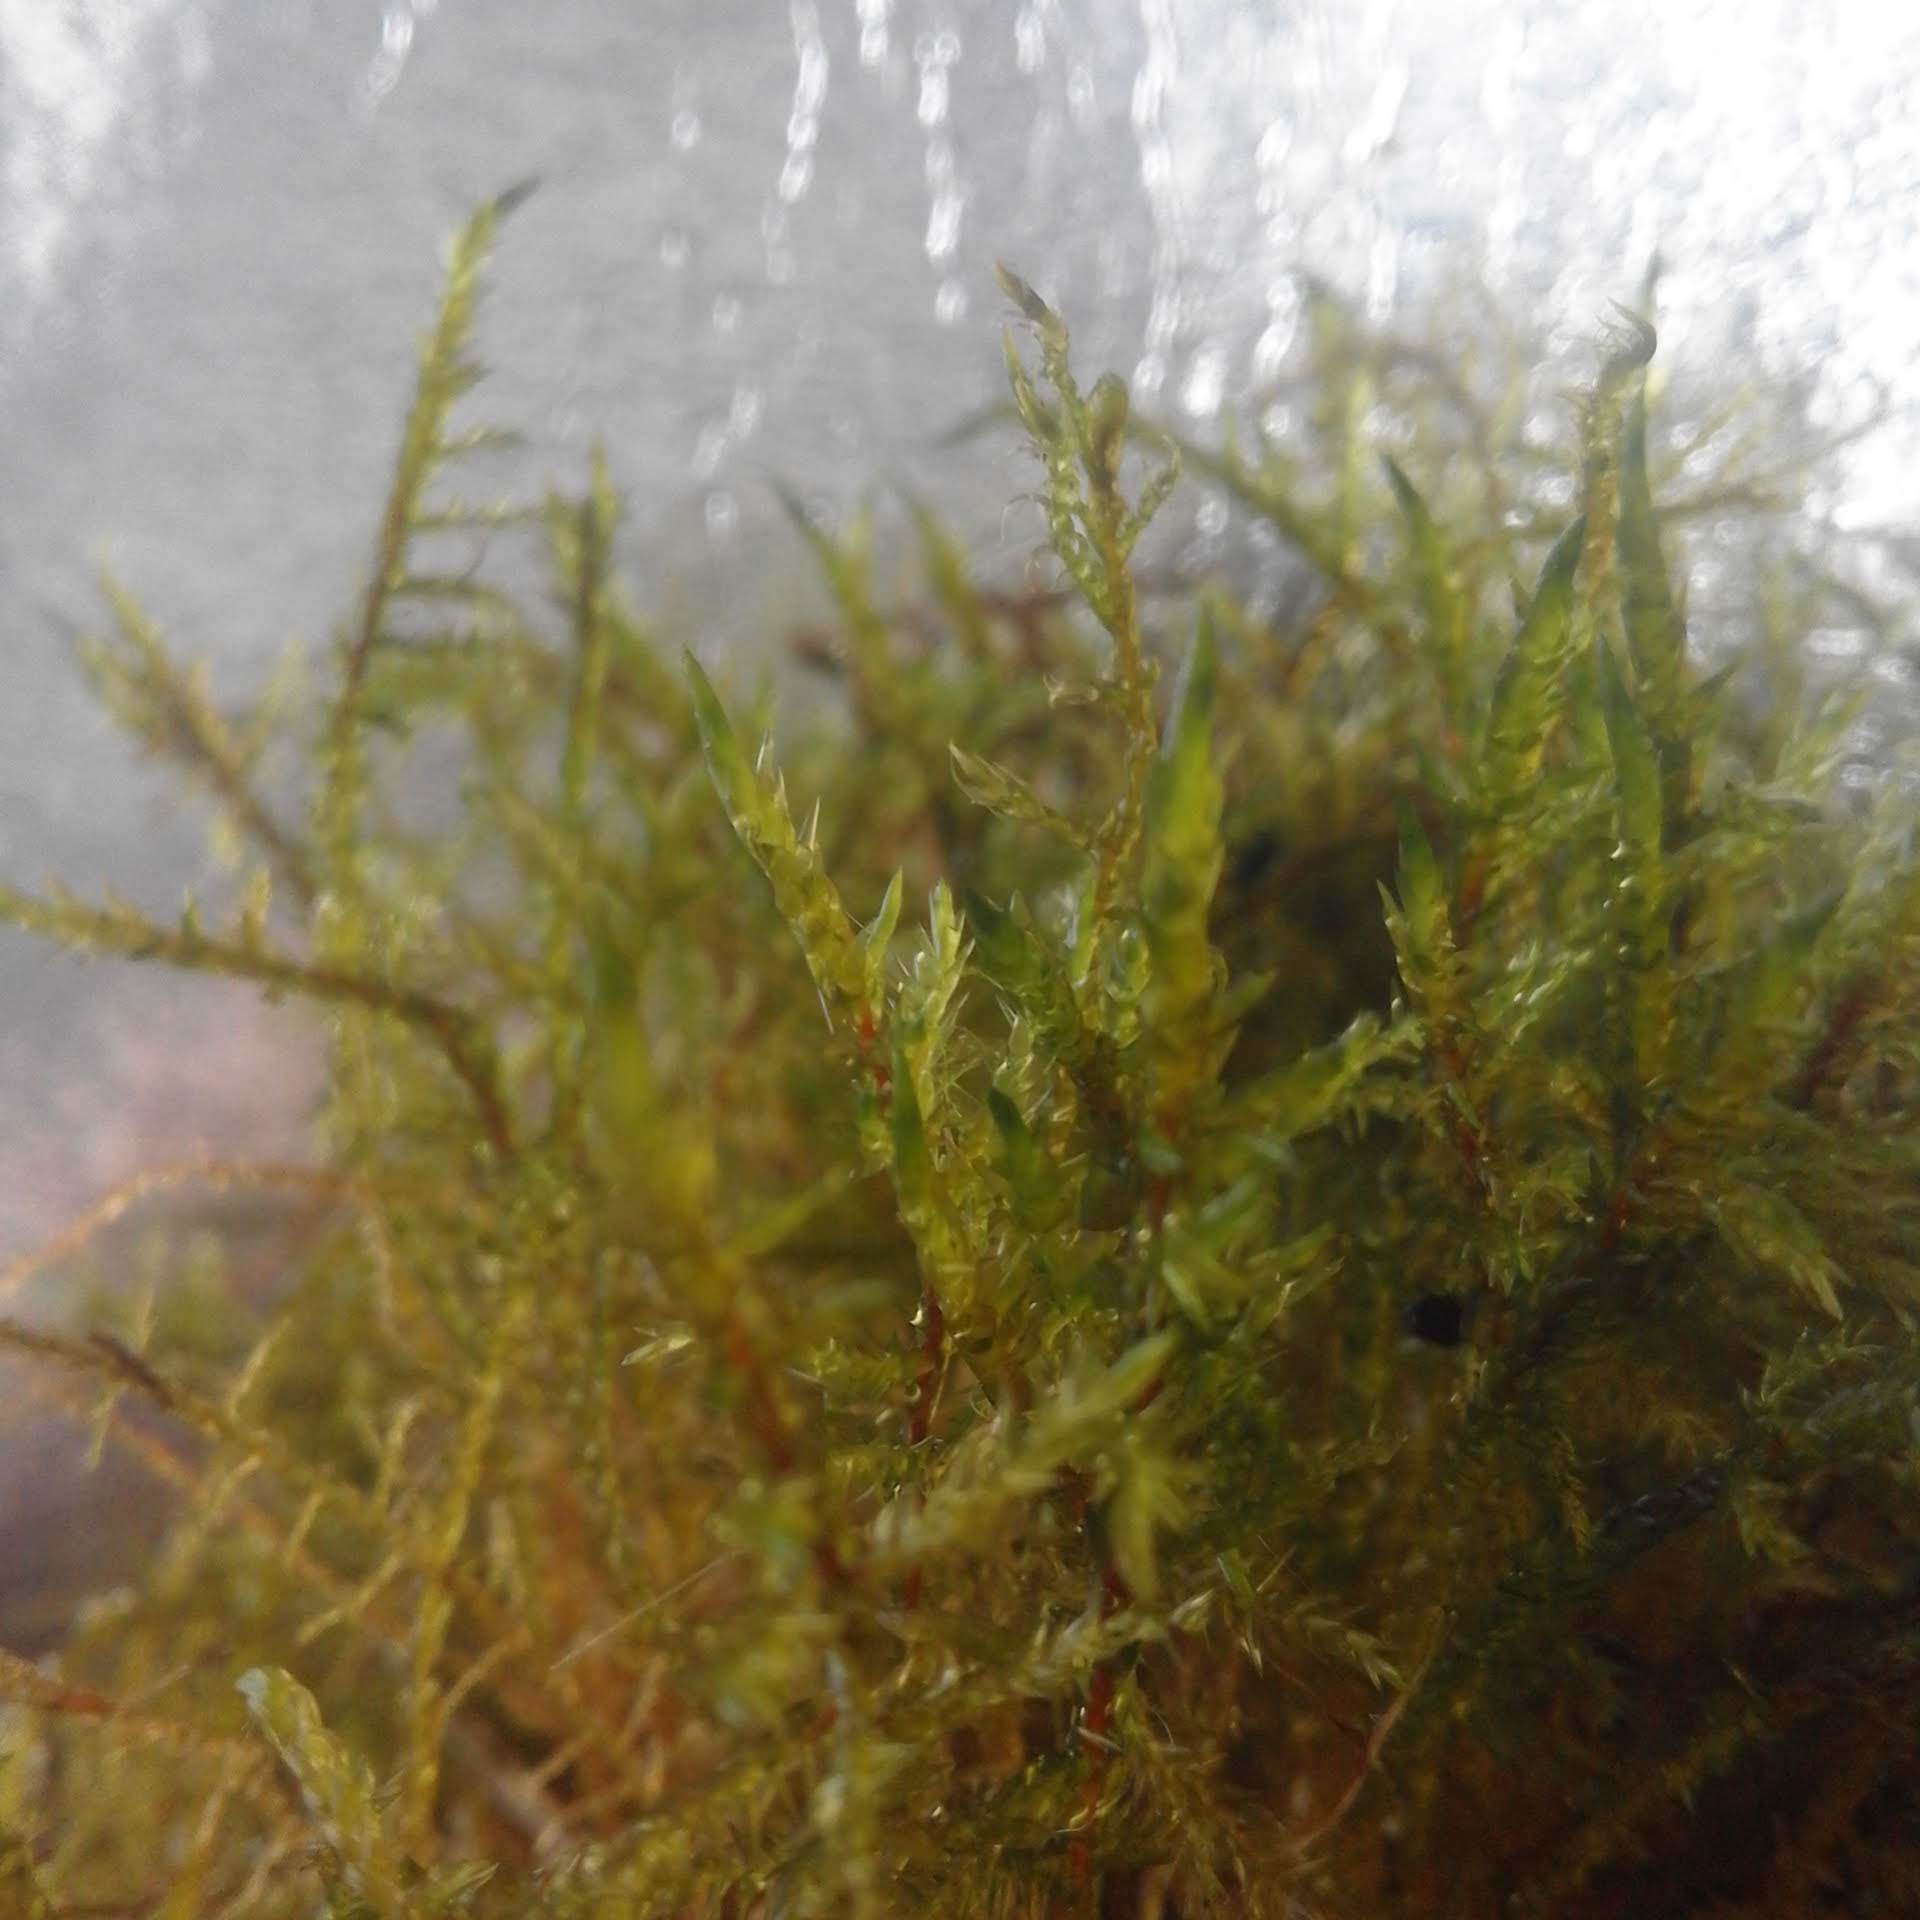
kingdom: Plantae
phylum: Bryophyta
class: Bryopsida
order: Hypnales
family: Pylaisiaceae
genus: Calliergonella
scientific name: Calliergonella cuspidata
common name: Common large wetland moss
